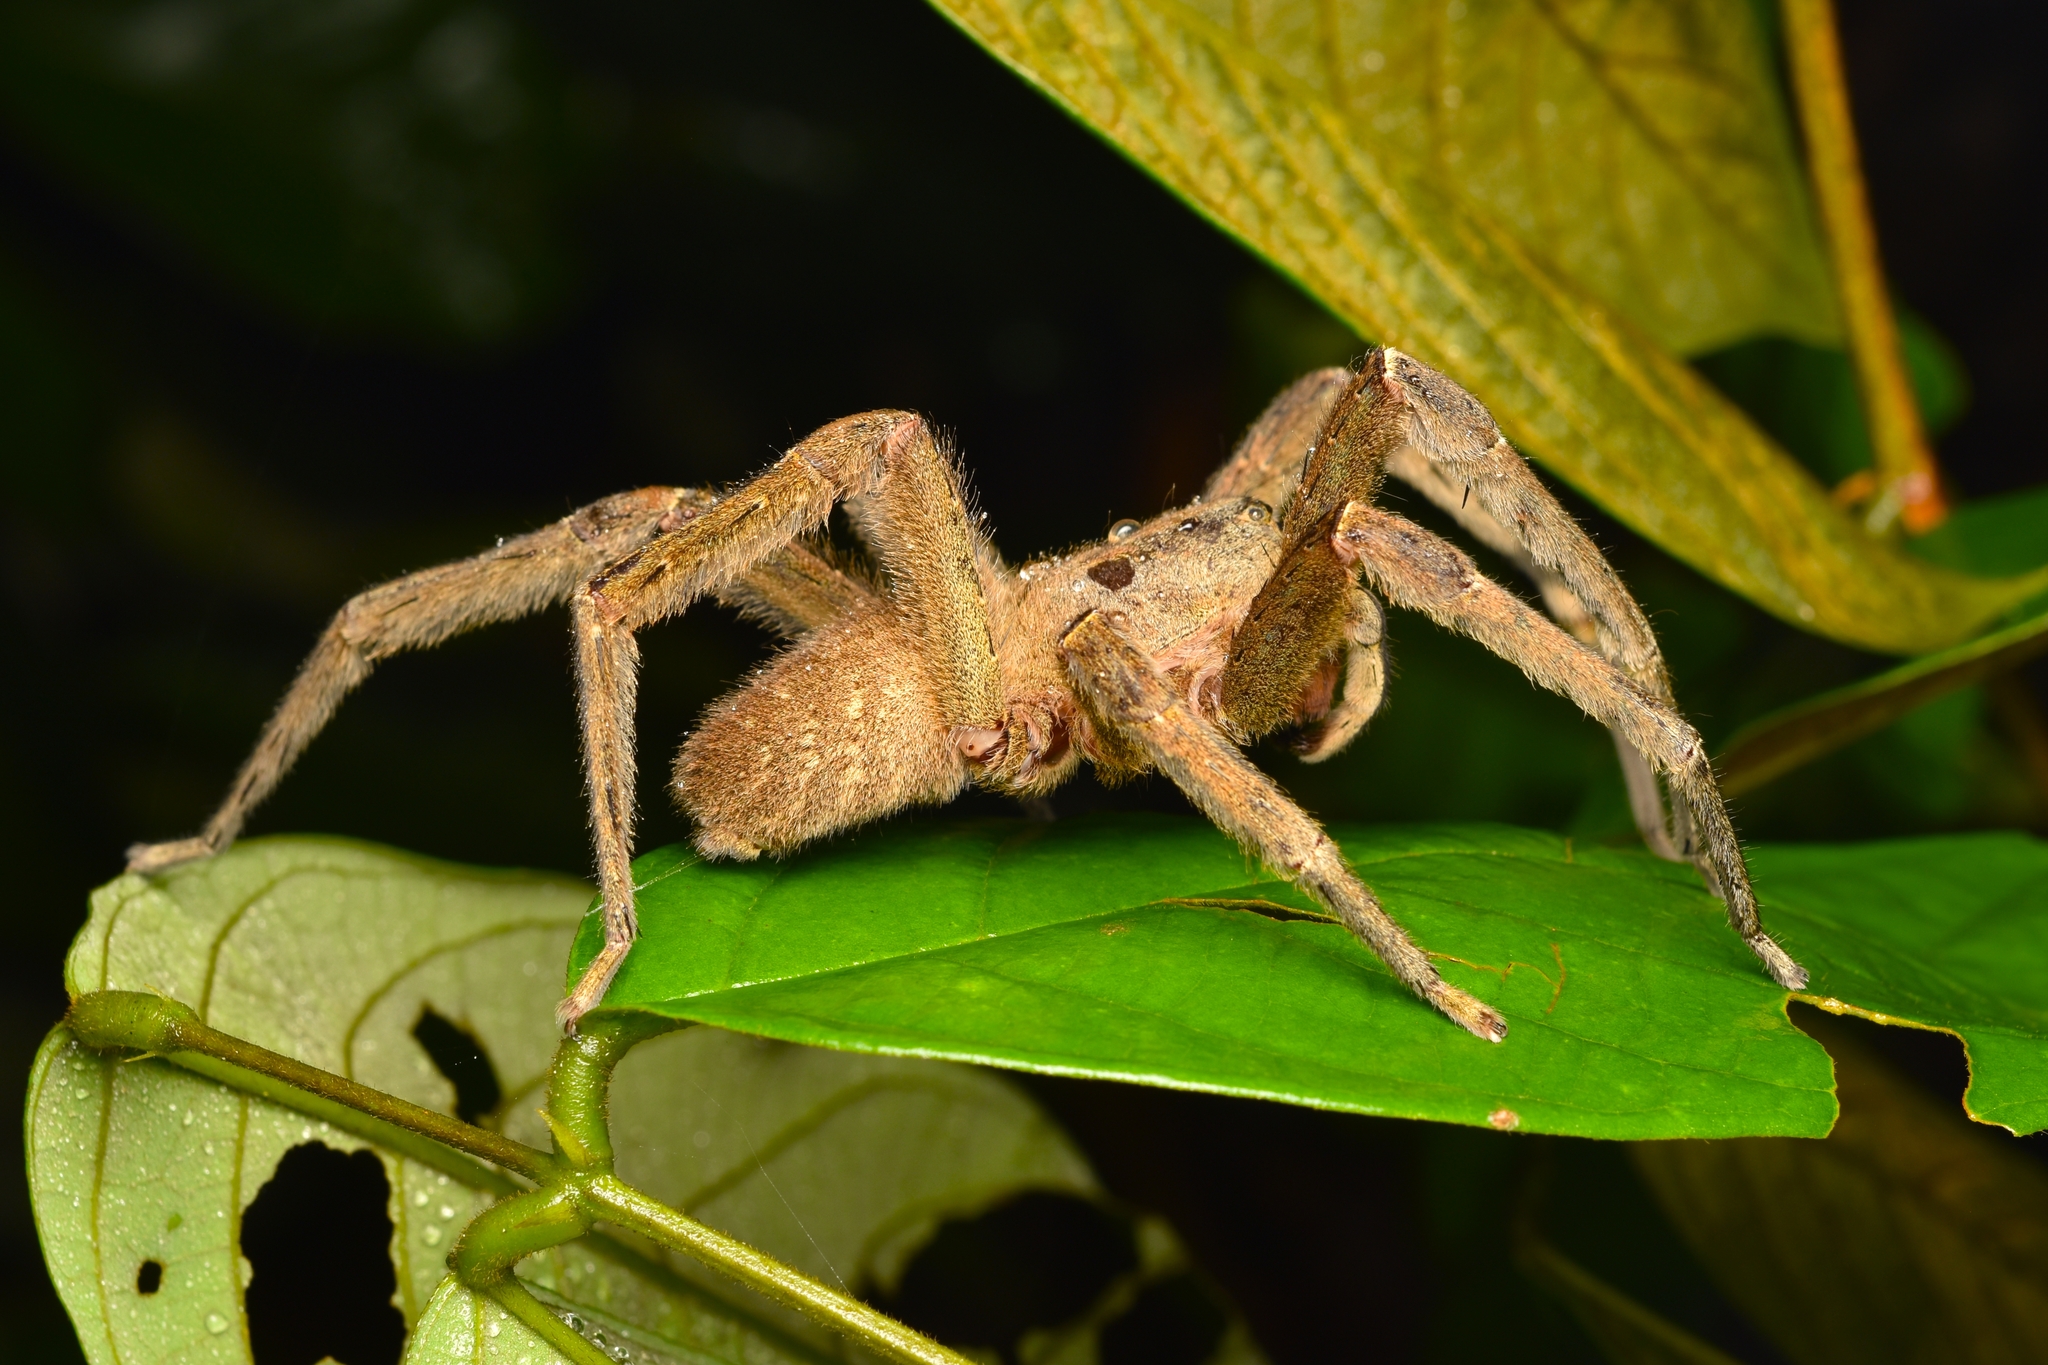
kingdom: Animalia
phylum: Arthropoda
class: Arachnida
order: Araneae
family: Ctenidae
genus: Phoneutria
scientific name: Phoneutria depilata
